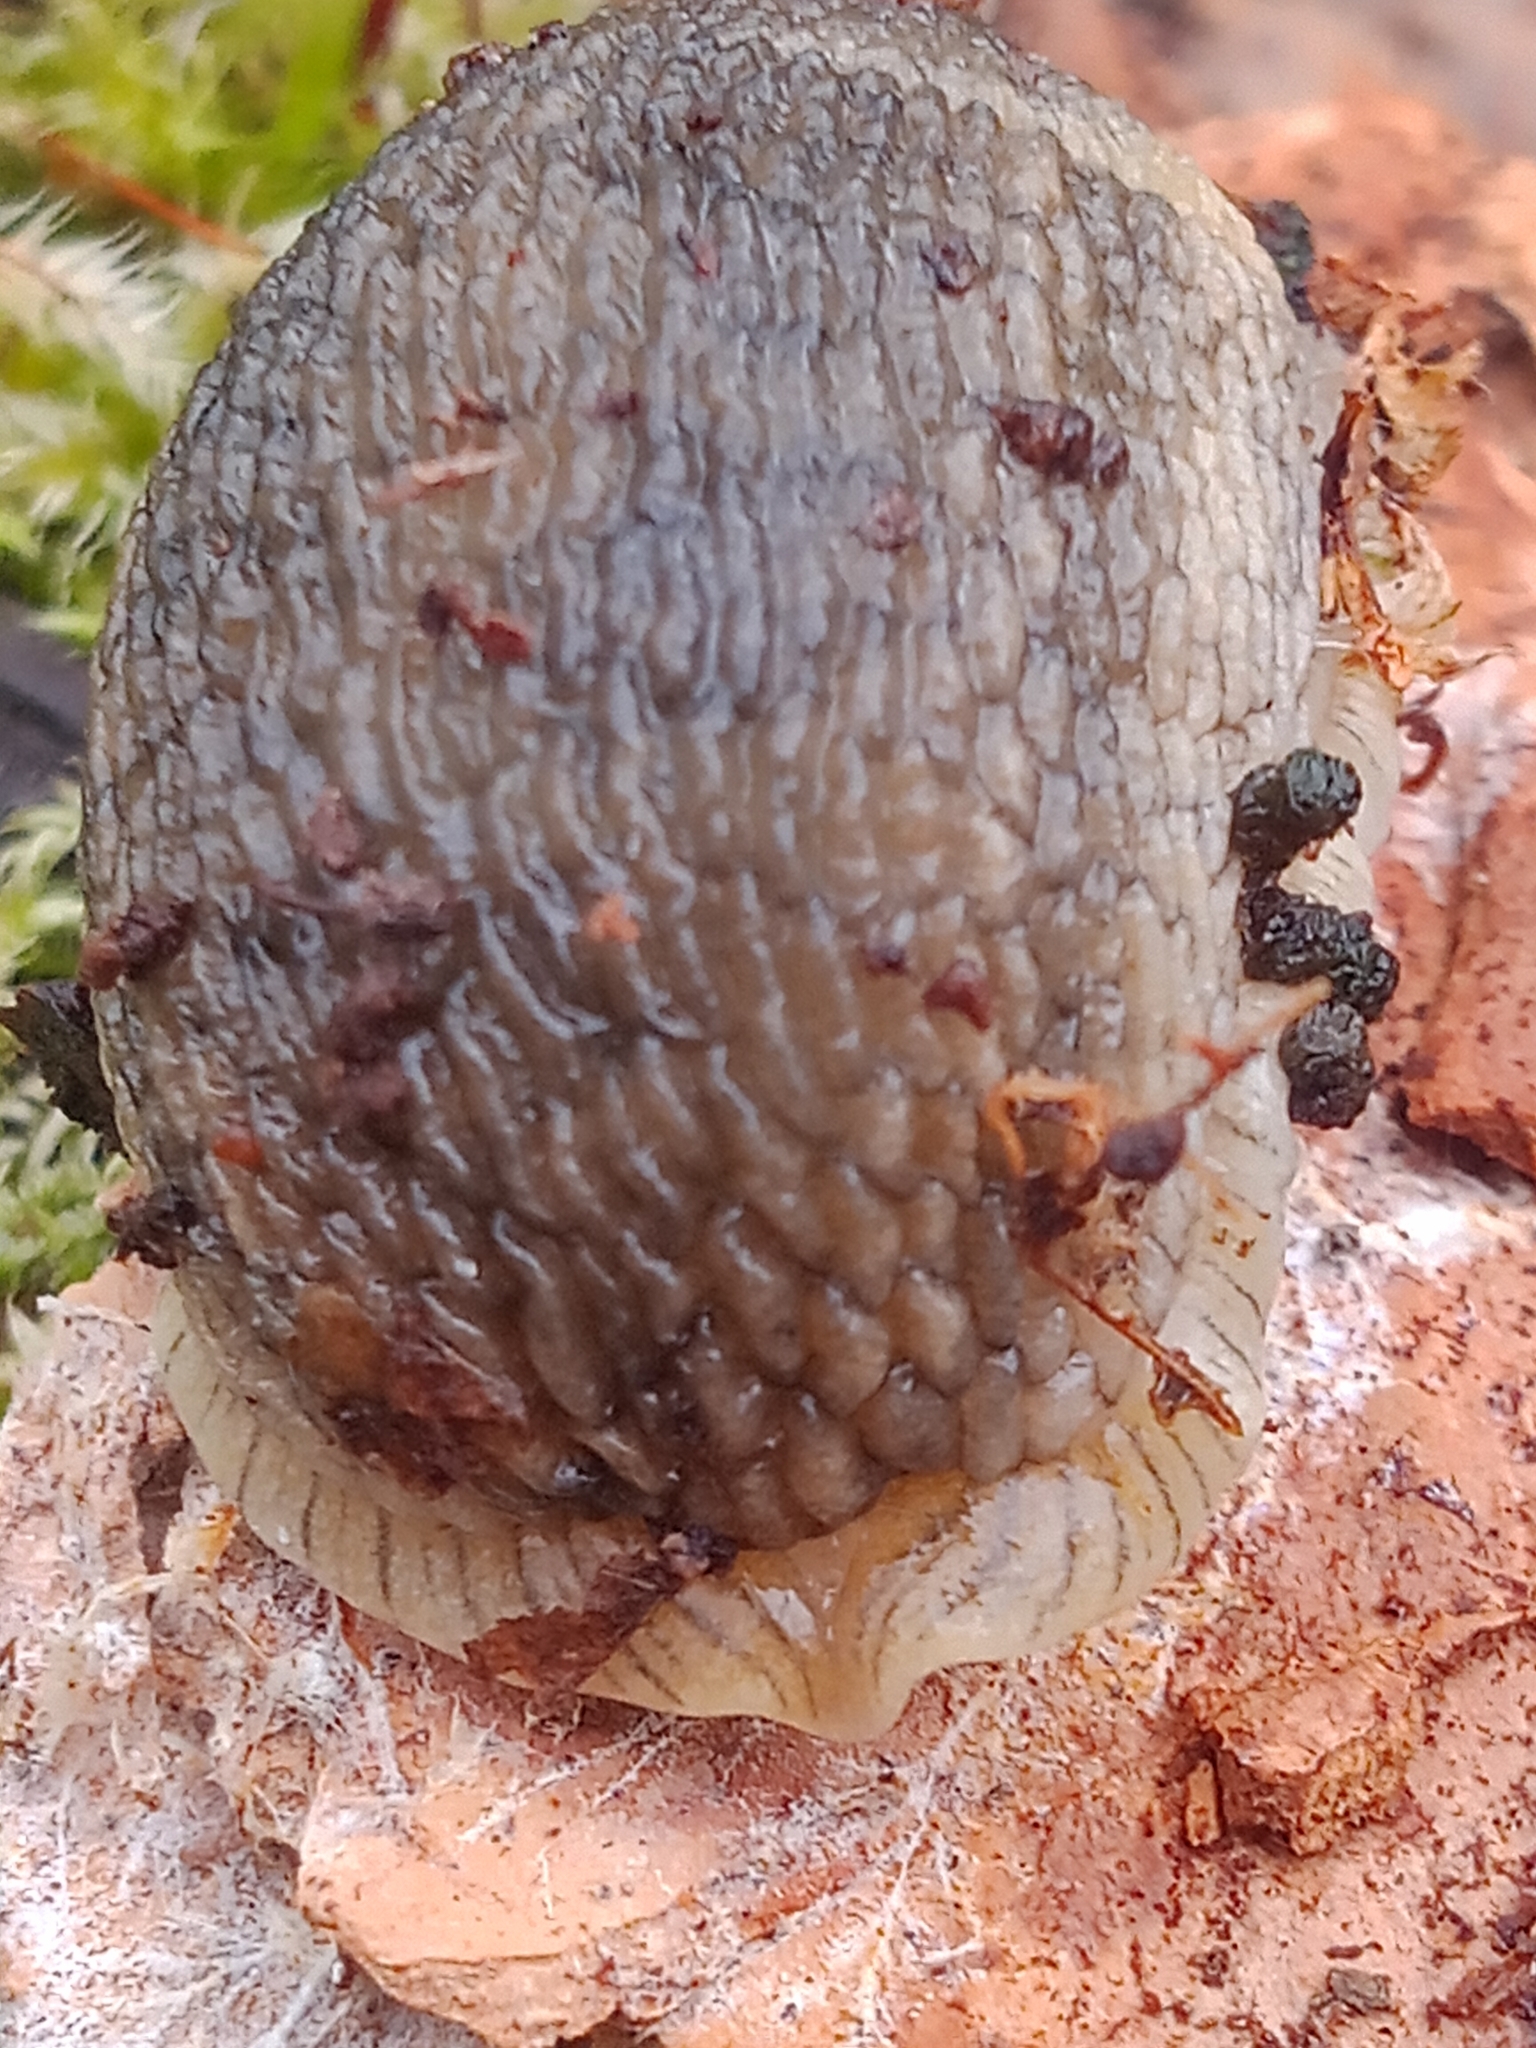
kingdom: Animalia
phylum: Mollusca
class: Gastropoda
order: Stylommatophora
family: Arionidae
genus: Arion
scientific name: Arion fuscus
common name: Northern dusky slug
